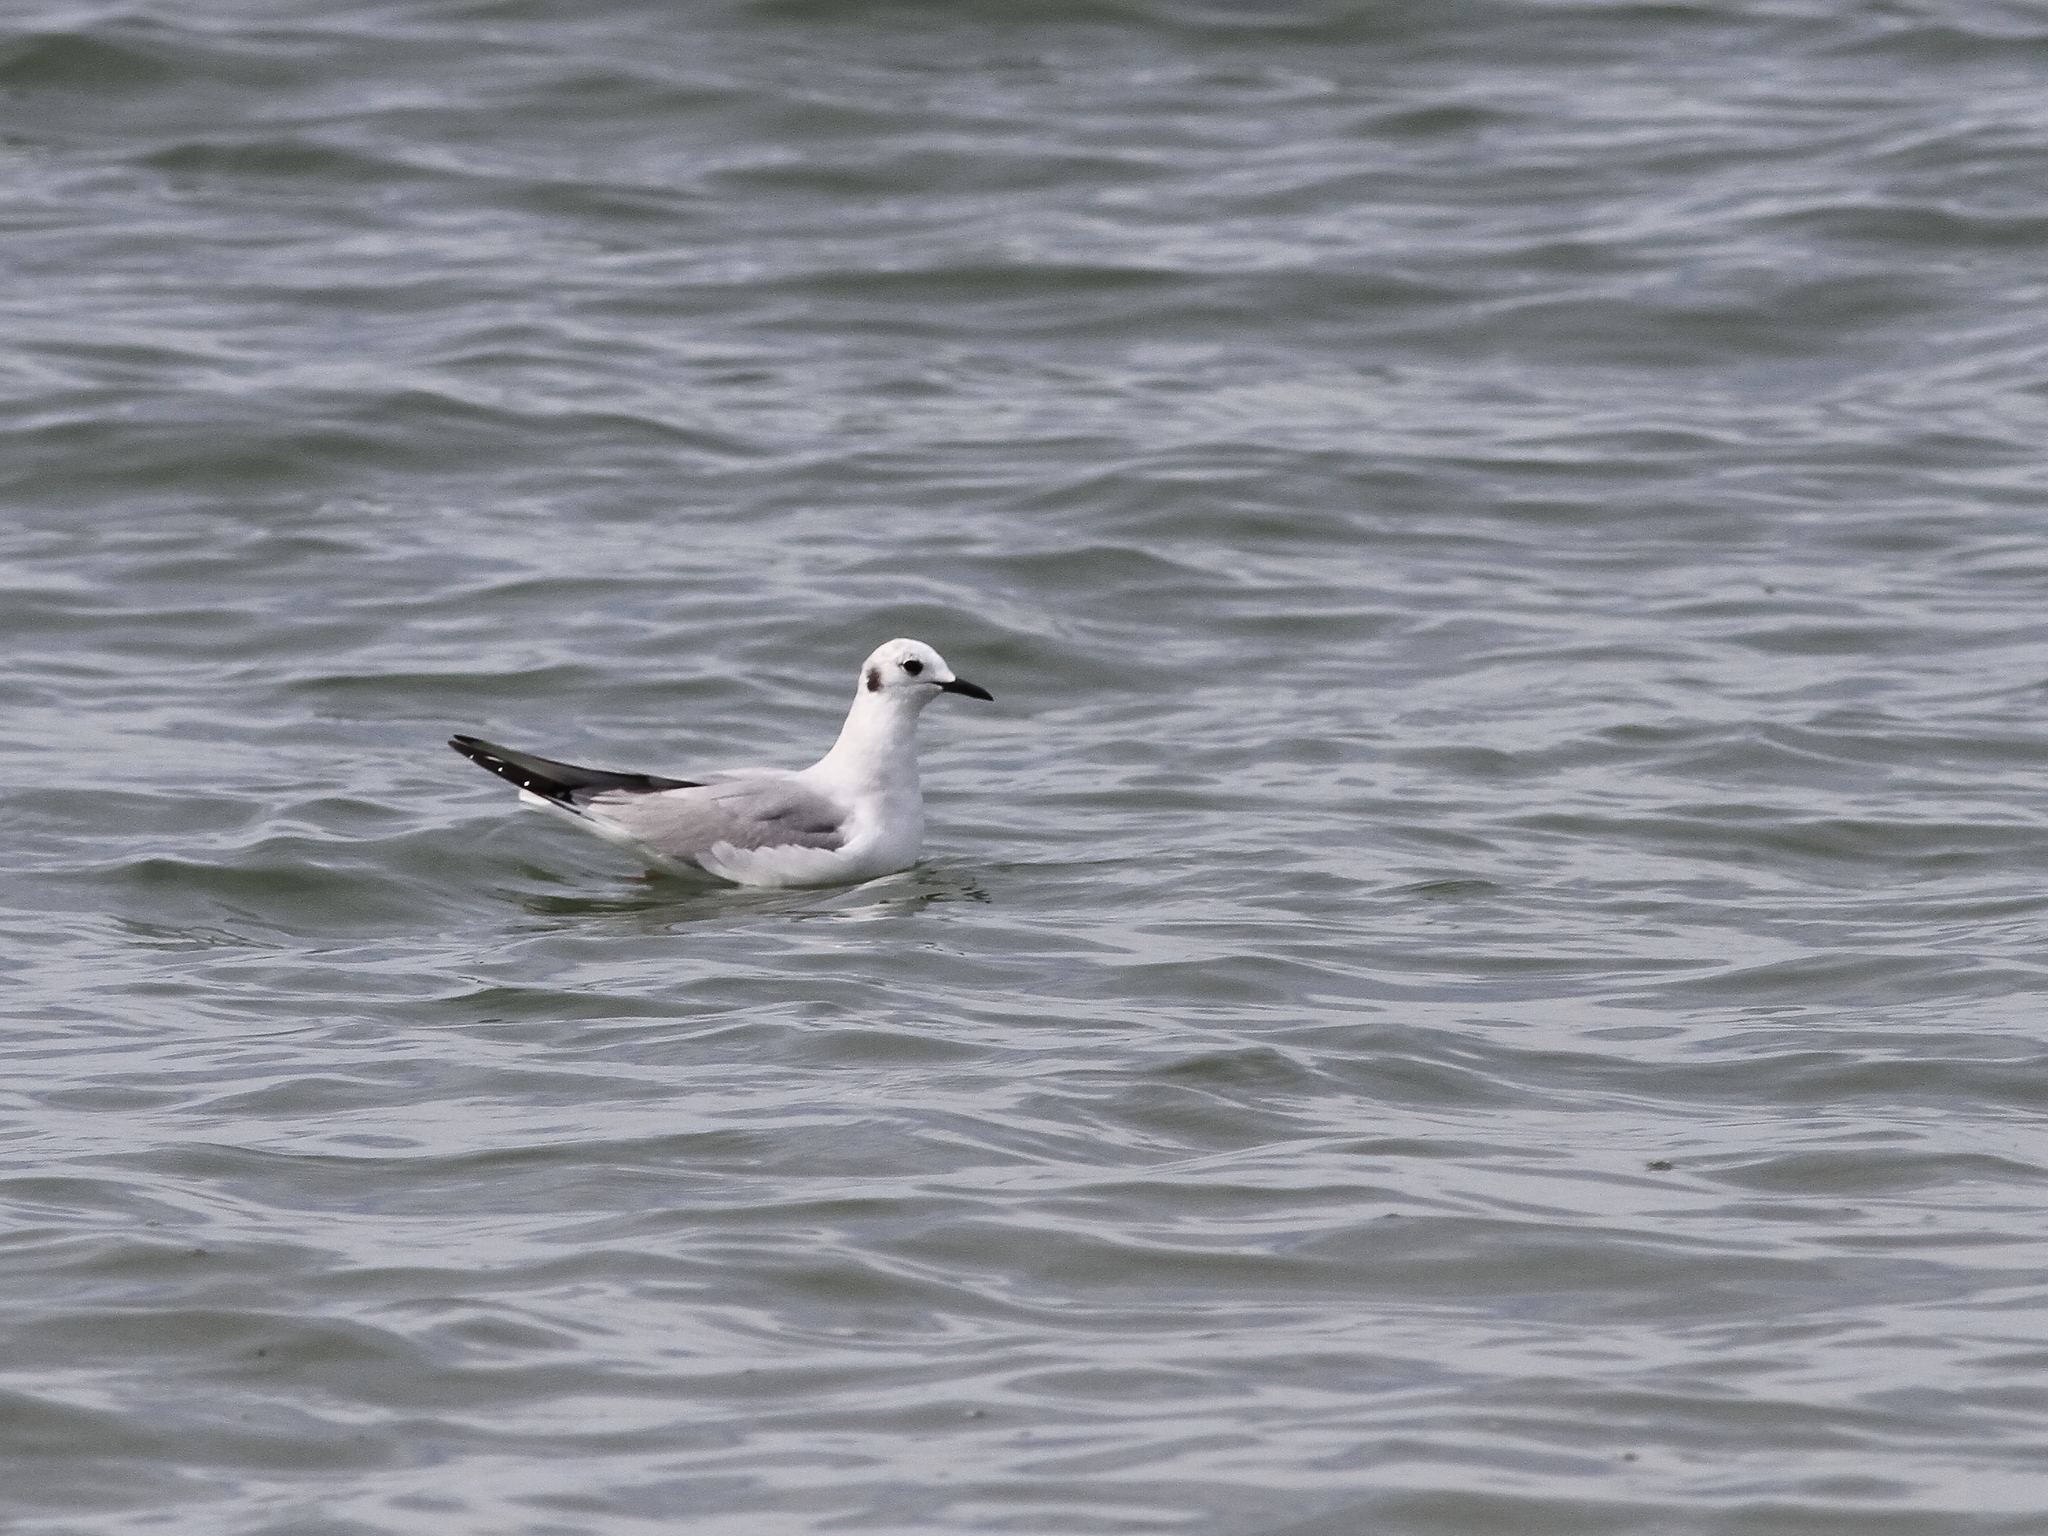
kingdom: Animalia
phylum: Chordata
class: Aves
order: Charadriiformes
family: Laridae
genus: Chroicocephalus
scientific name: Chroicocephalus philadelphia
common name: Bonaparte's gull
